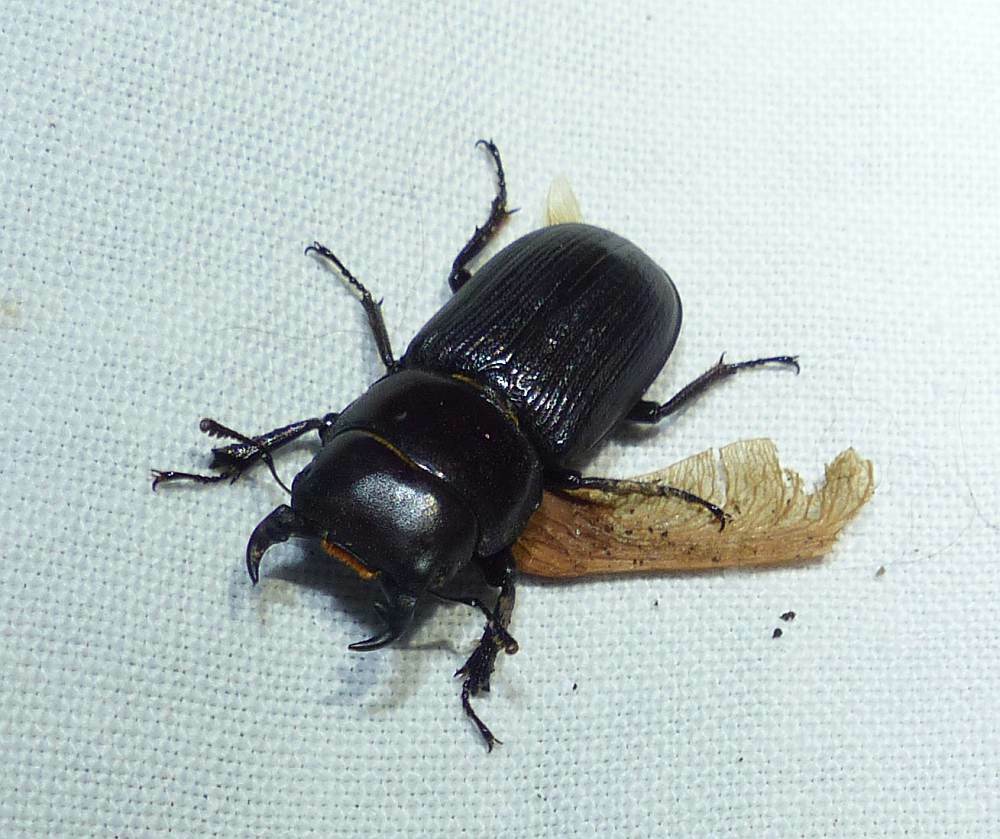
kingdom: Animalia
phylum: Arthropoda
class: Insecta
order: Coleoptera
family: Lucanidae
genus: Dorcus
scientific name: Dorcus parallelus
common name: Antelope beetle
